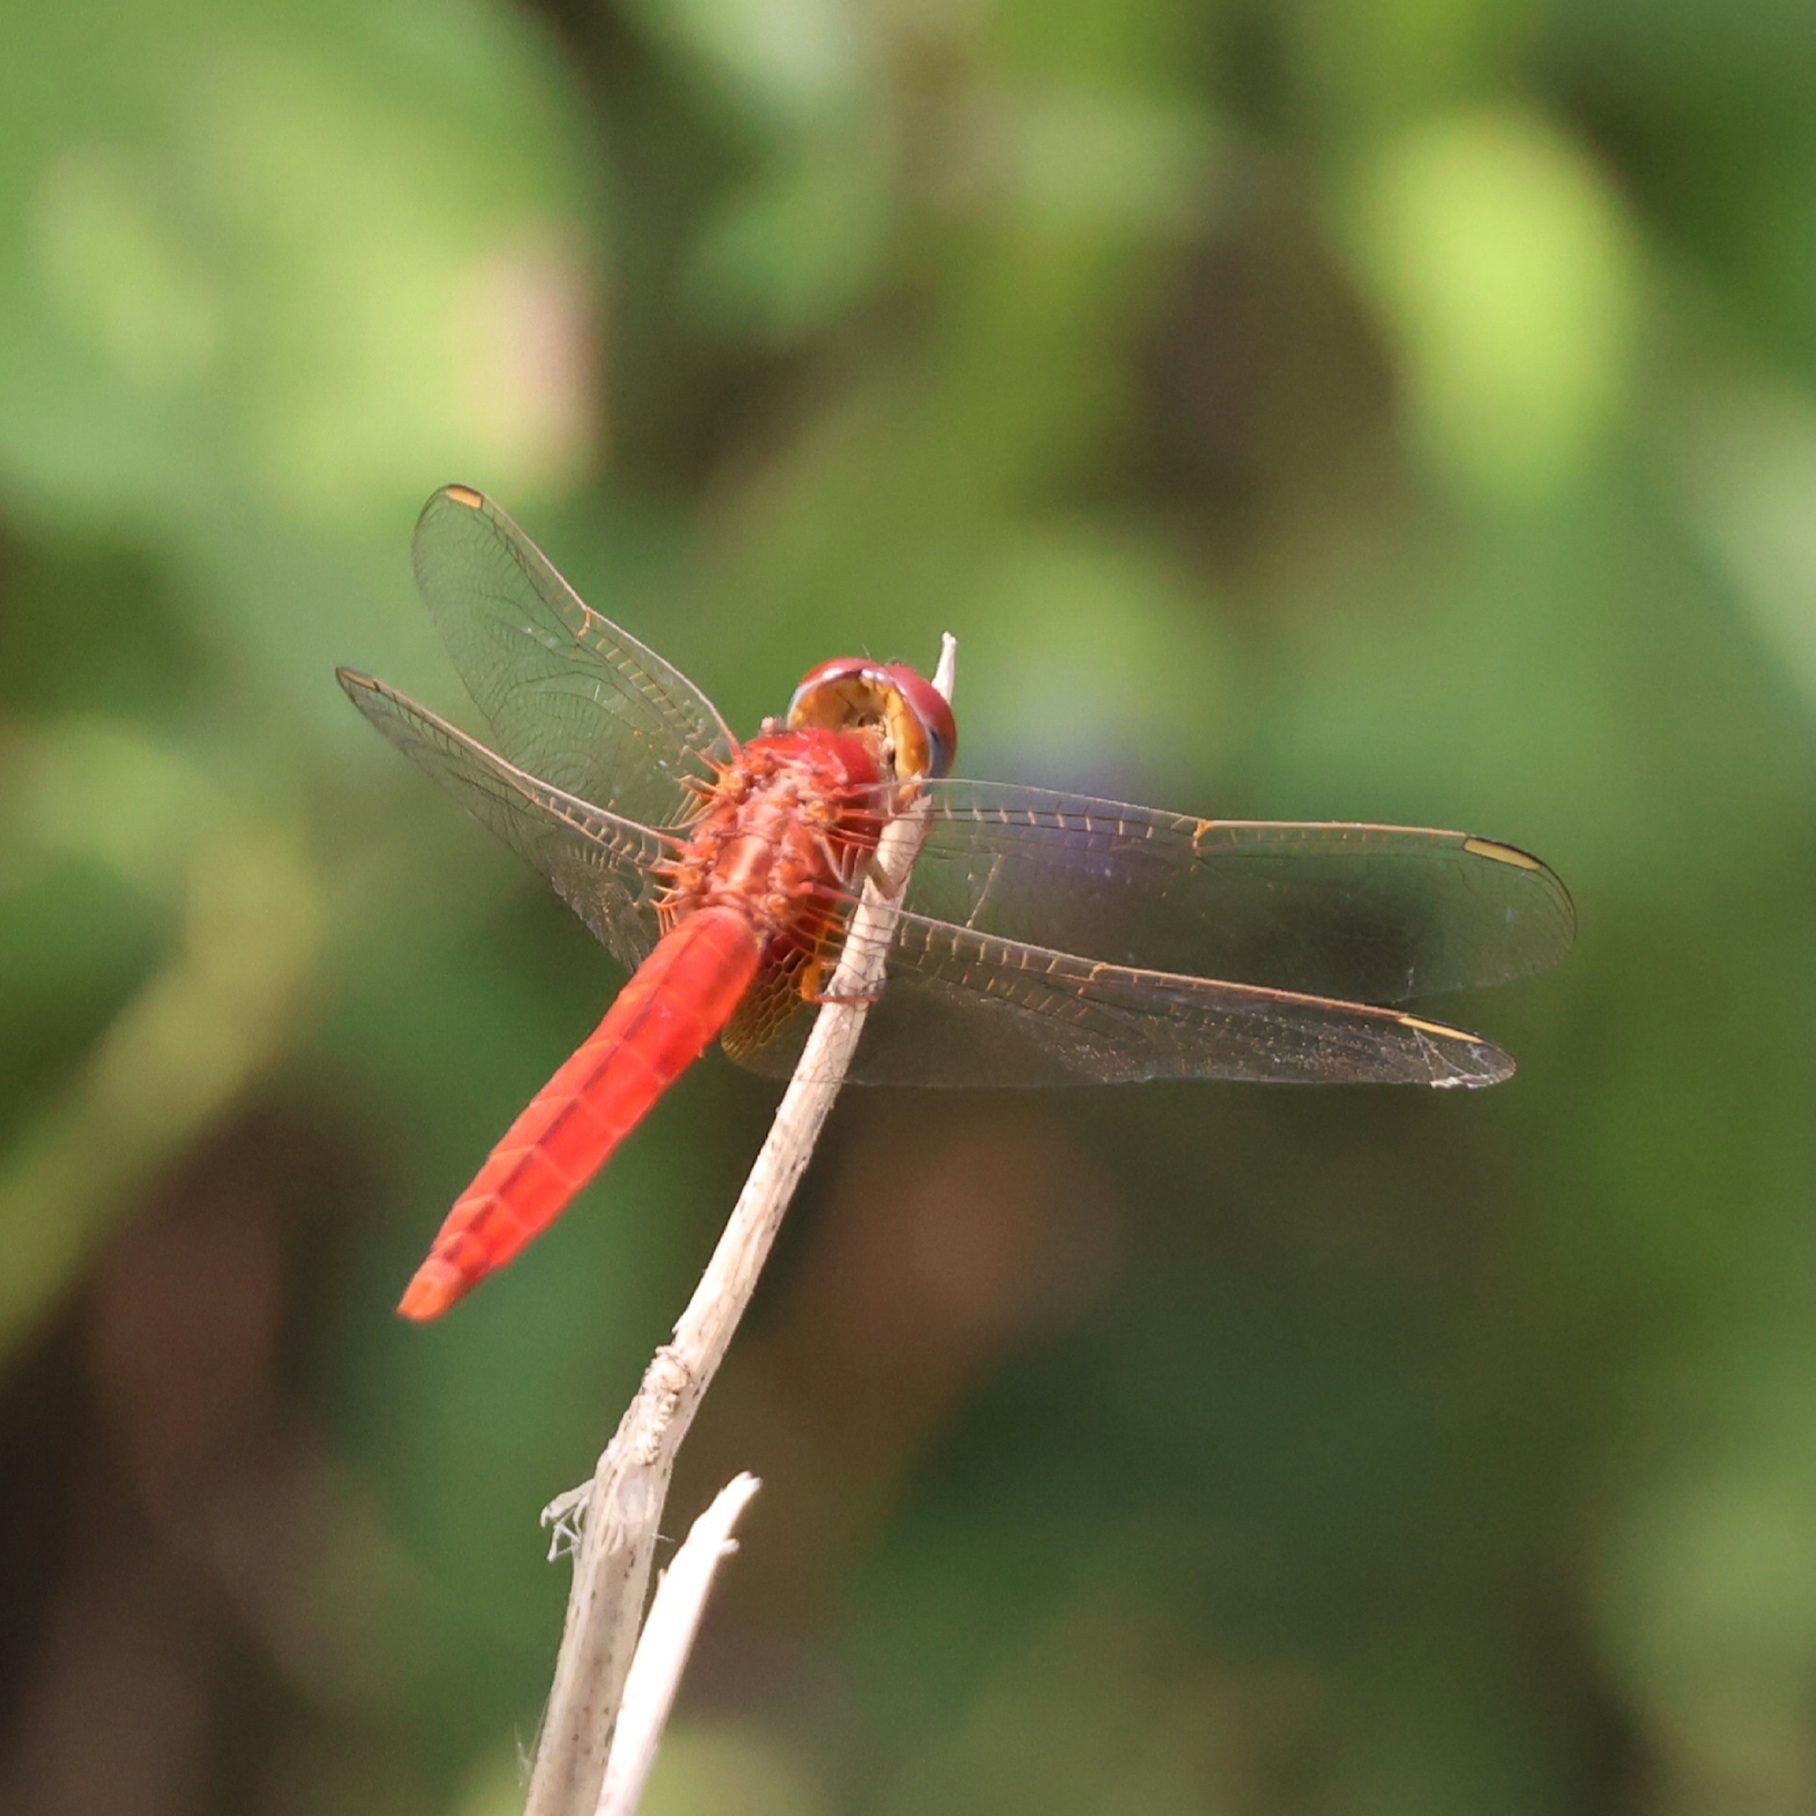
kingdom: Animalia
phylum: Arthropoda
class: Insecta
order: Odonata
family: Libellulidae
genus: Crocothemis
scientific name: Crocothemis servilia
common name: Scarlet skimmer
